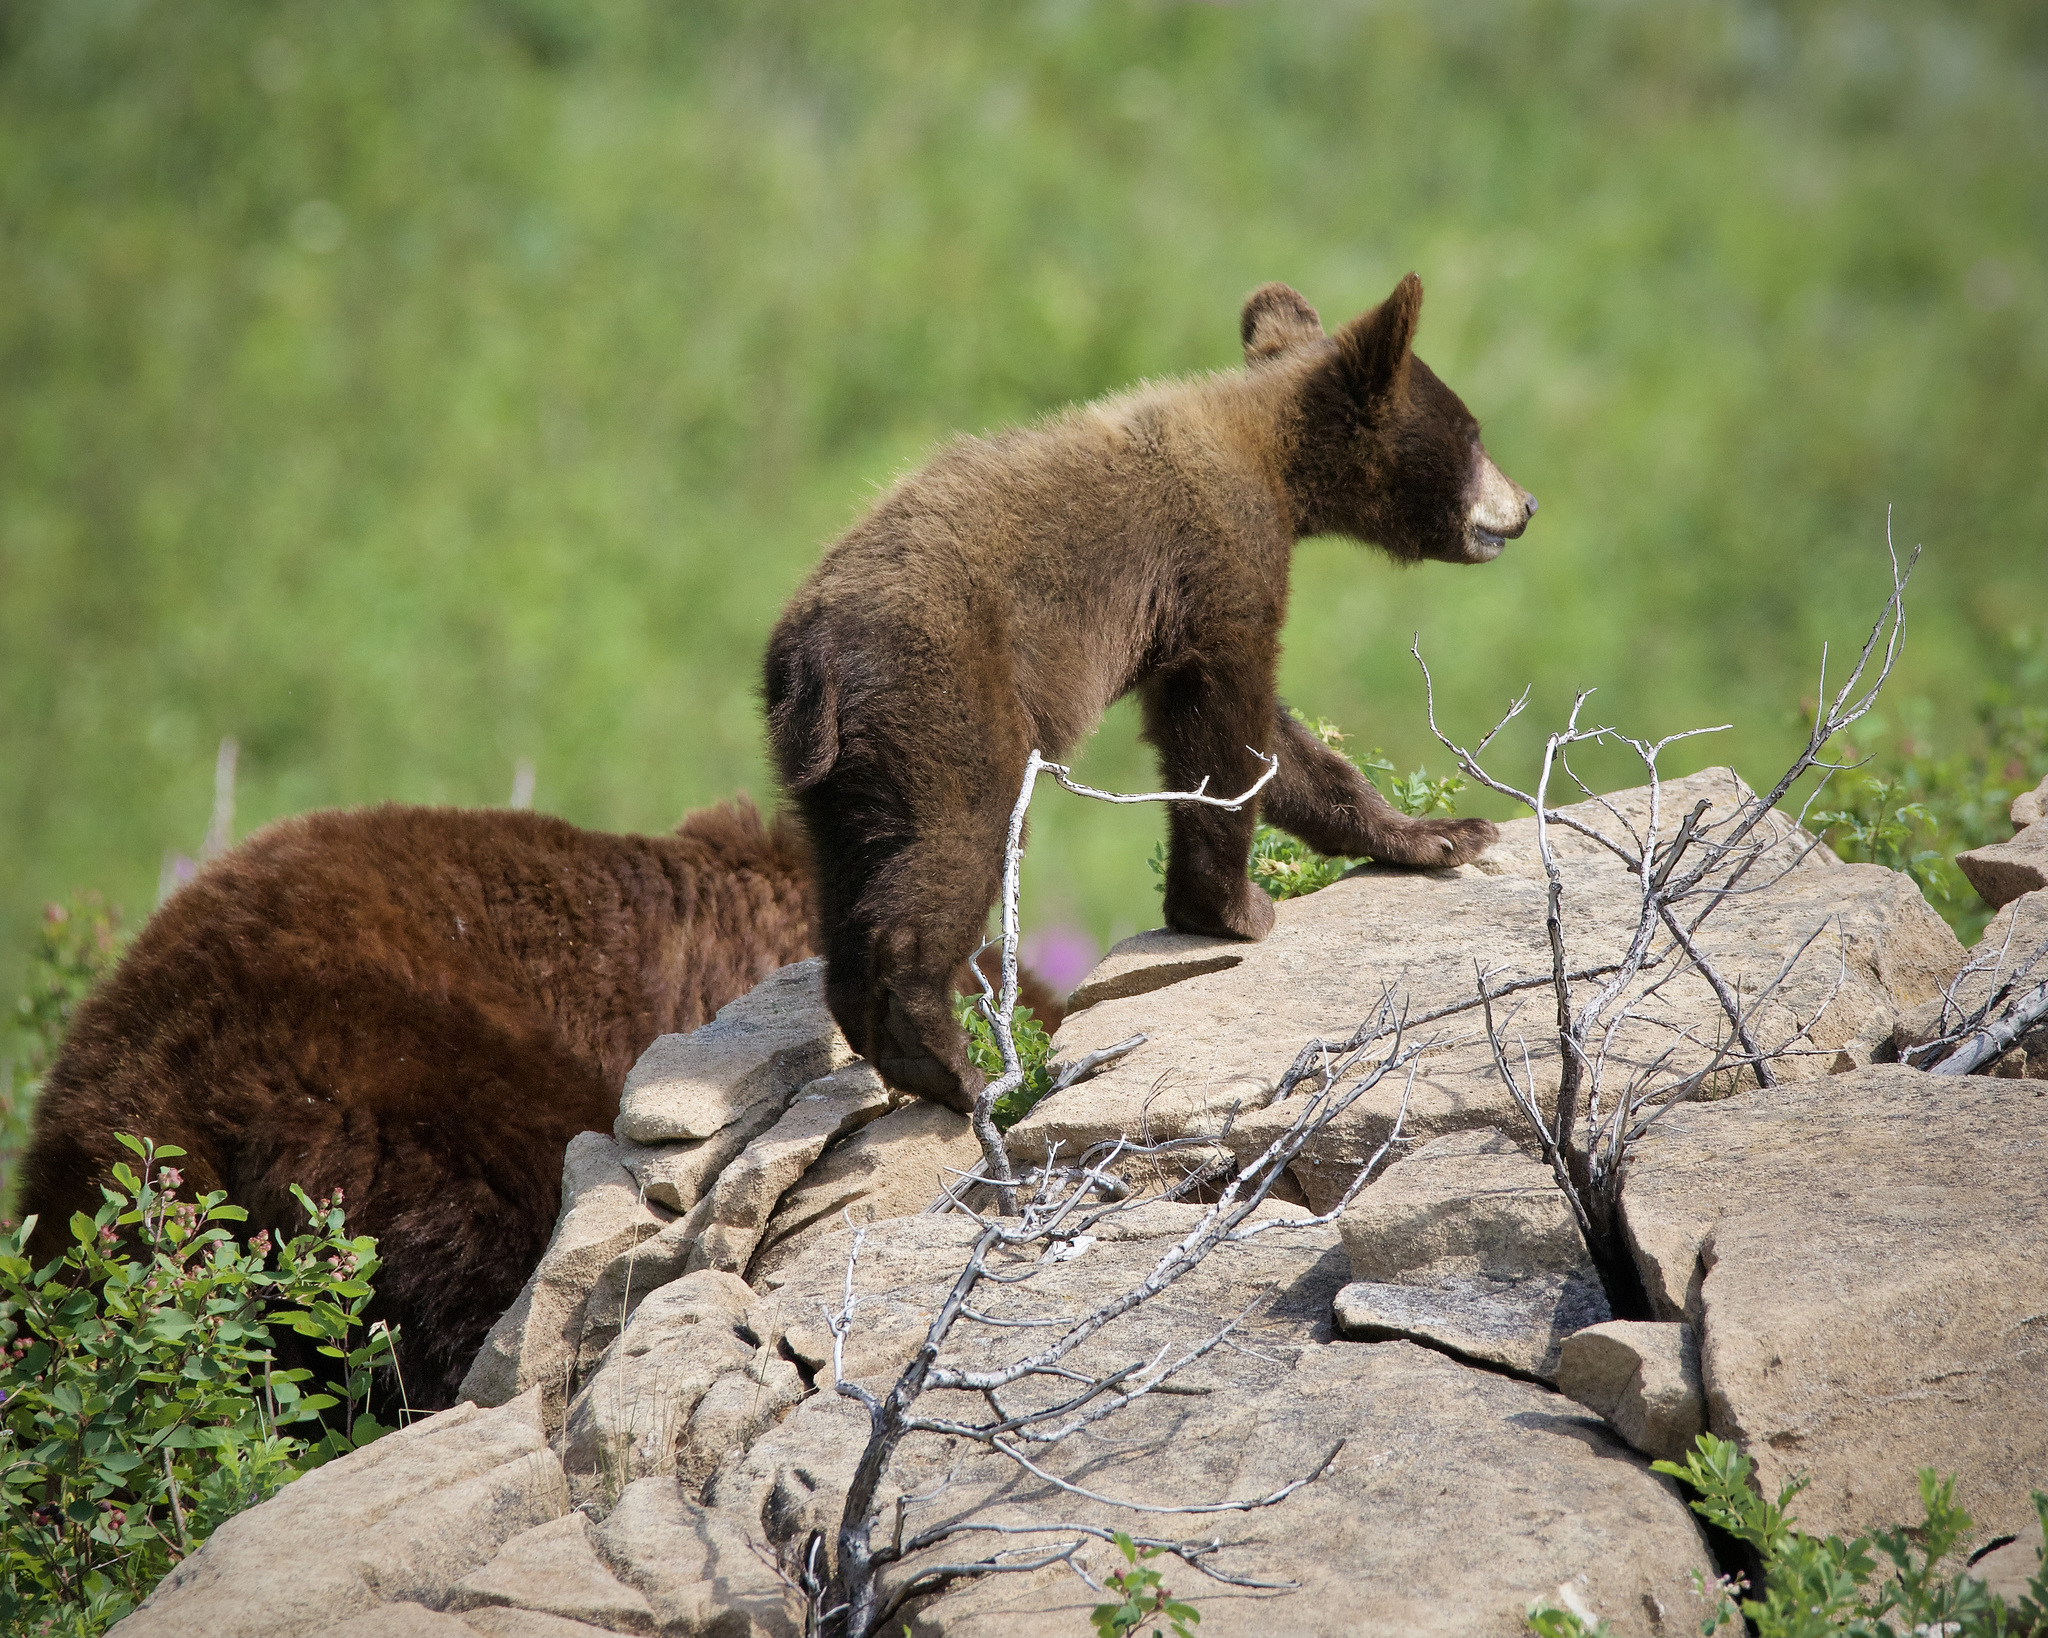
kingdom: Animalia
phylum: Chordata
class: Mammalia
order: Carnivora
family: Ursidae
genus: Ursus
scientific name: Ursus americanus
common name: American black bear
